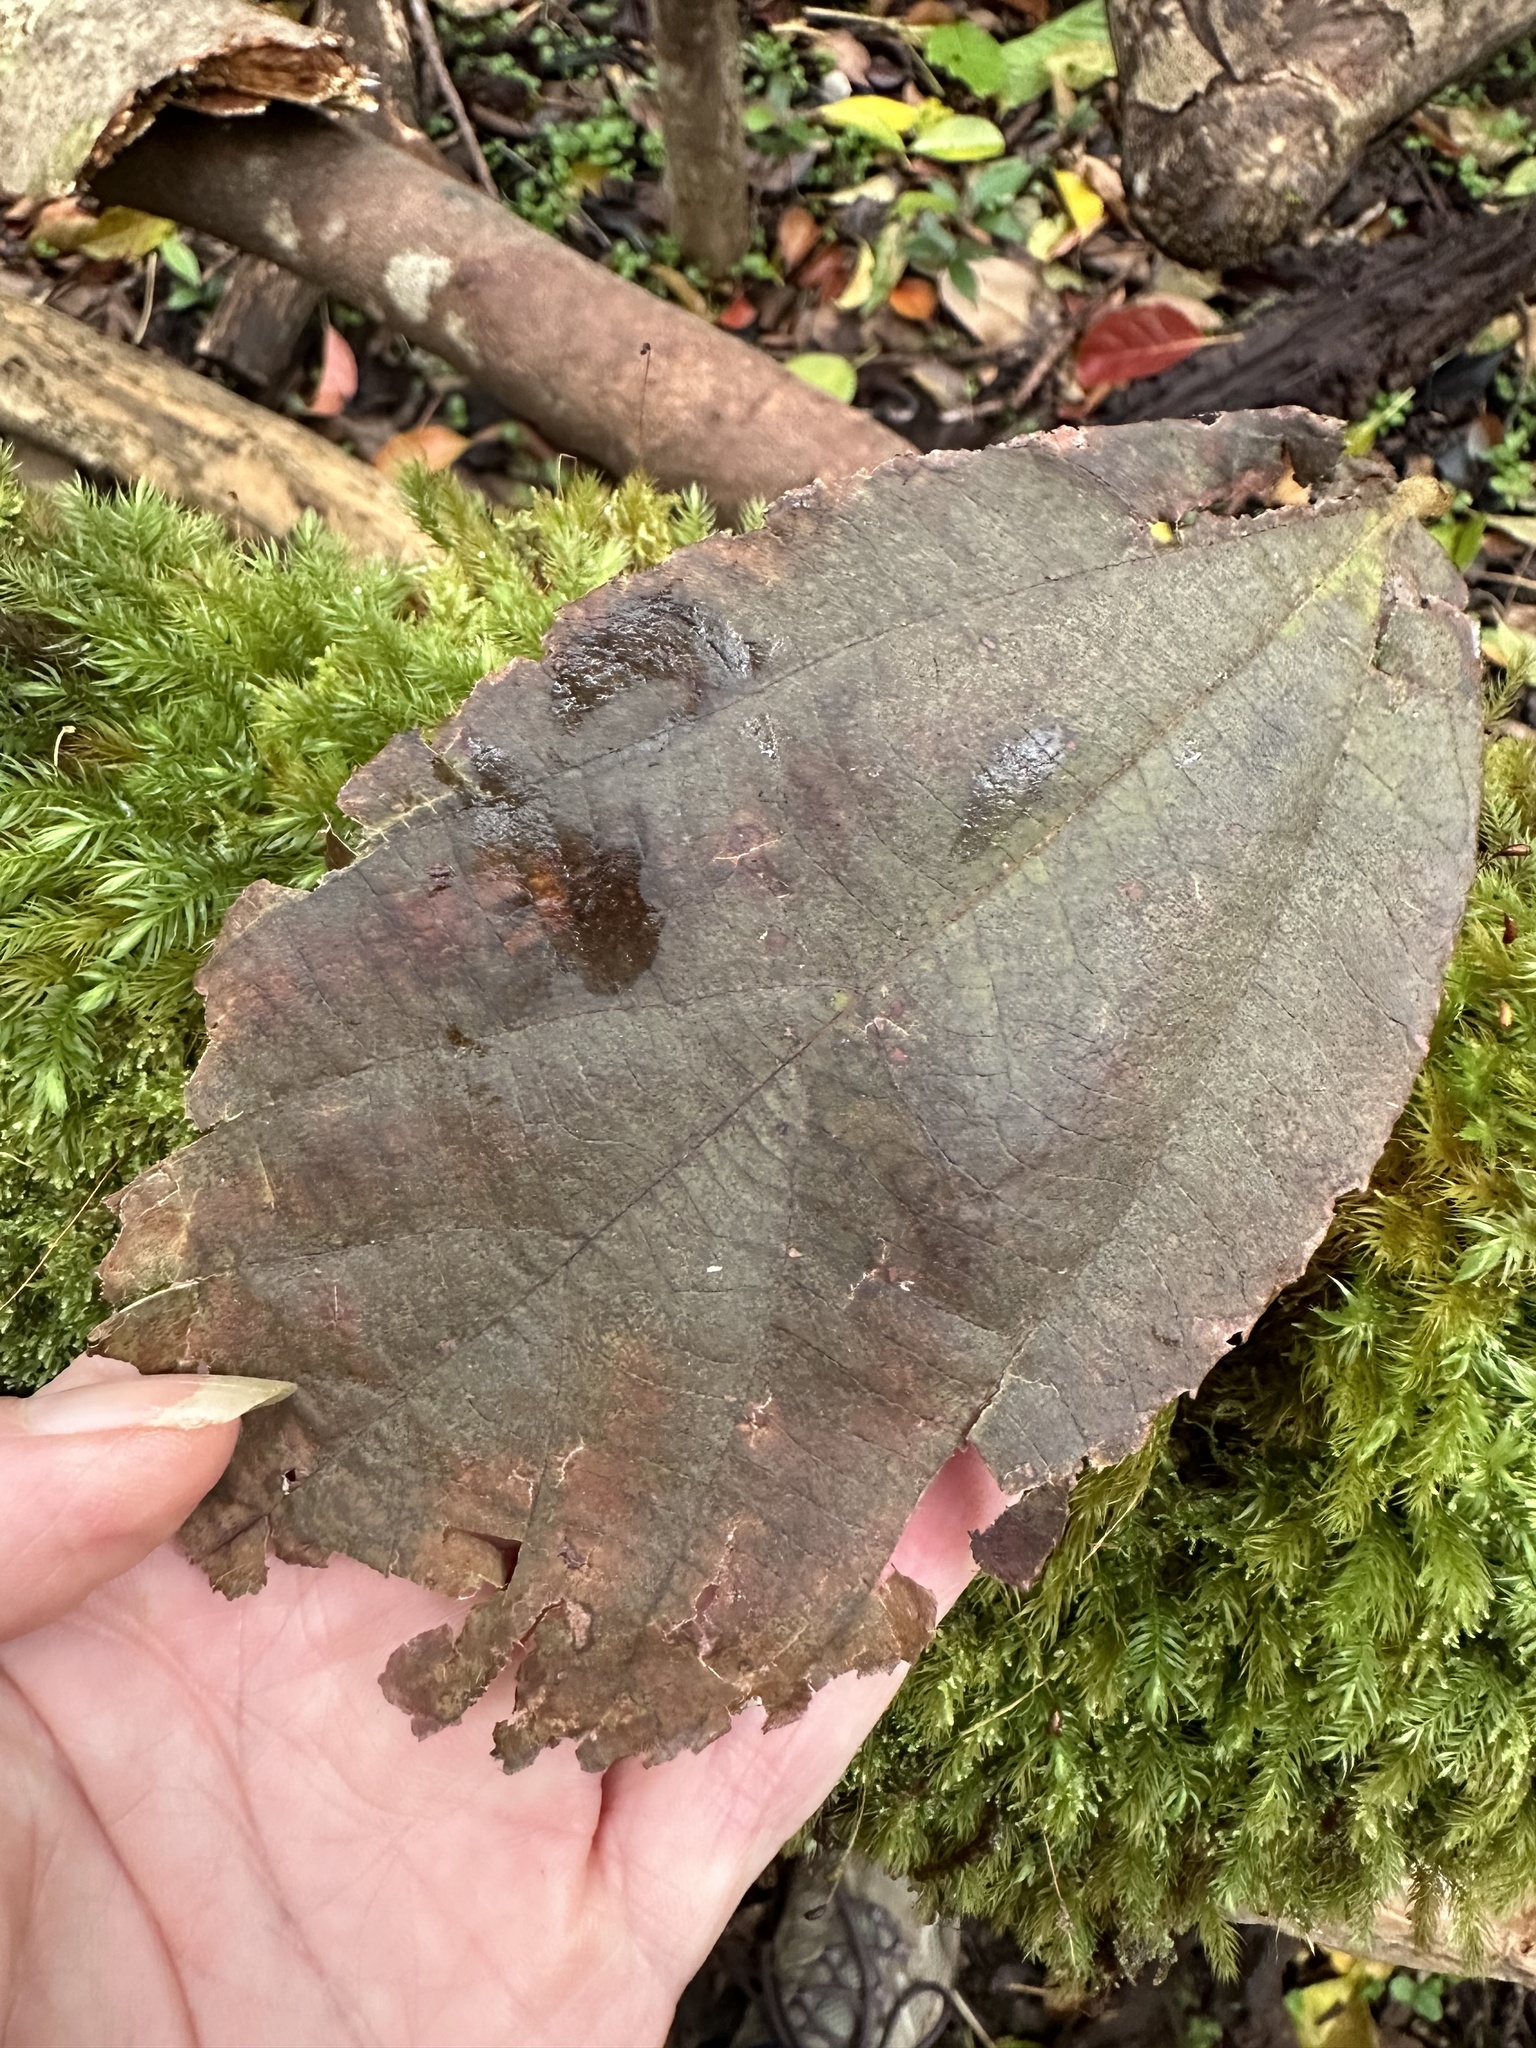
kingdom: Plantae
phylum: Tracheophyta
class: Magnoliopsida
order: Rosales
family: Urticaceae
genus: Pipturus
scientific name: Pipturus albidus
